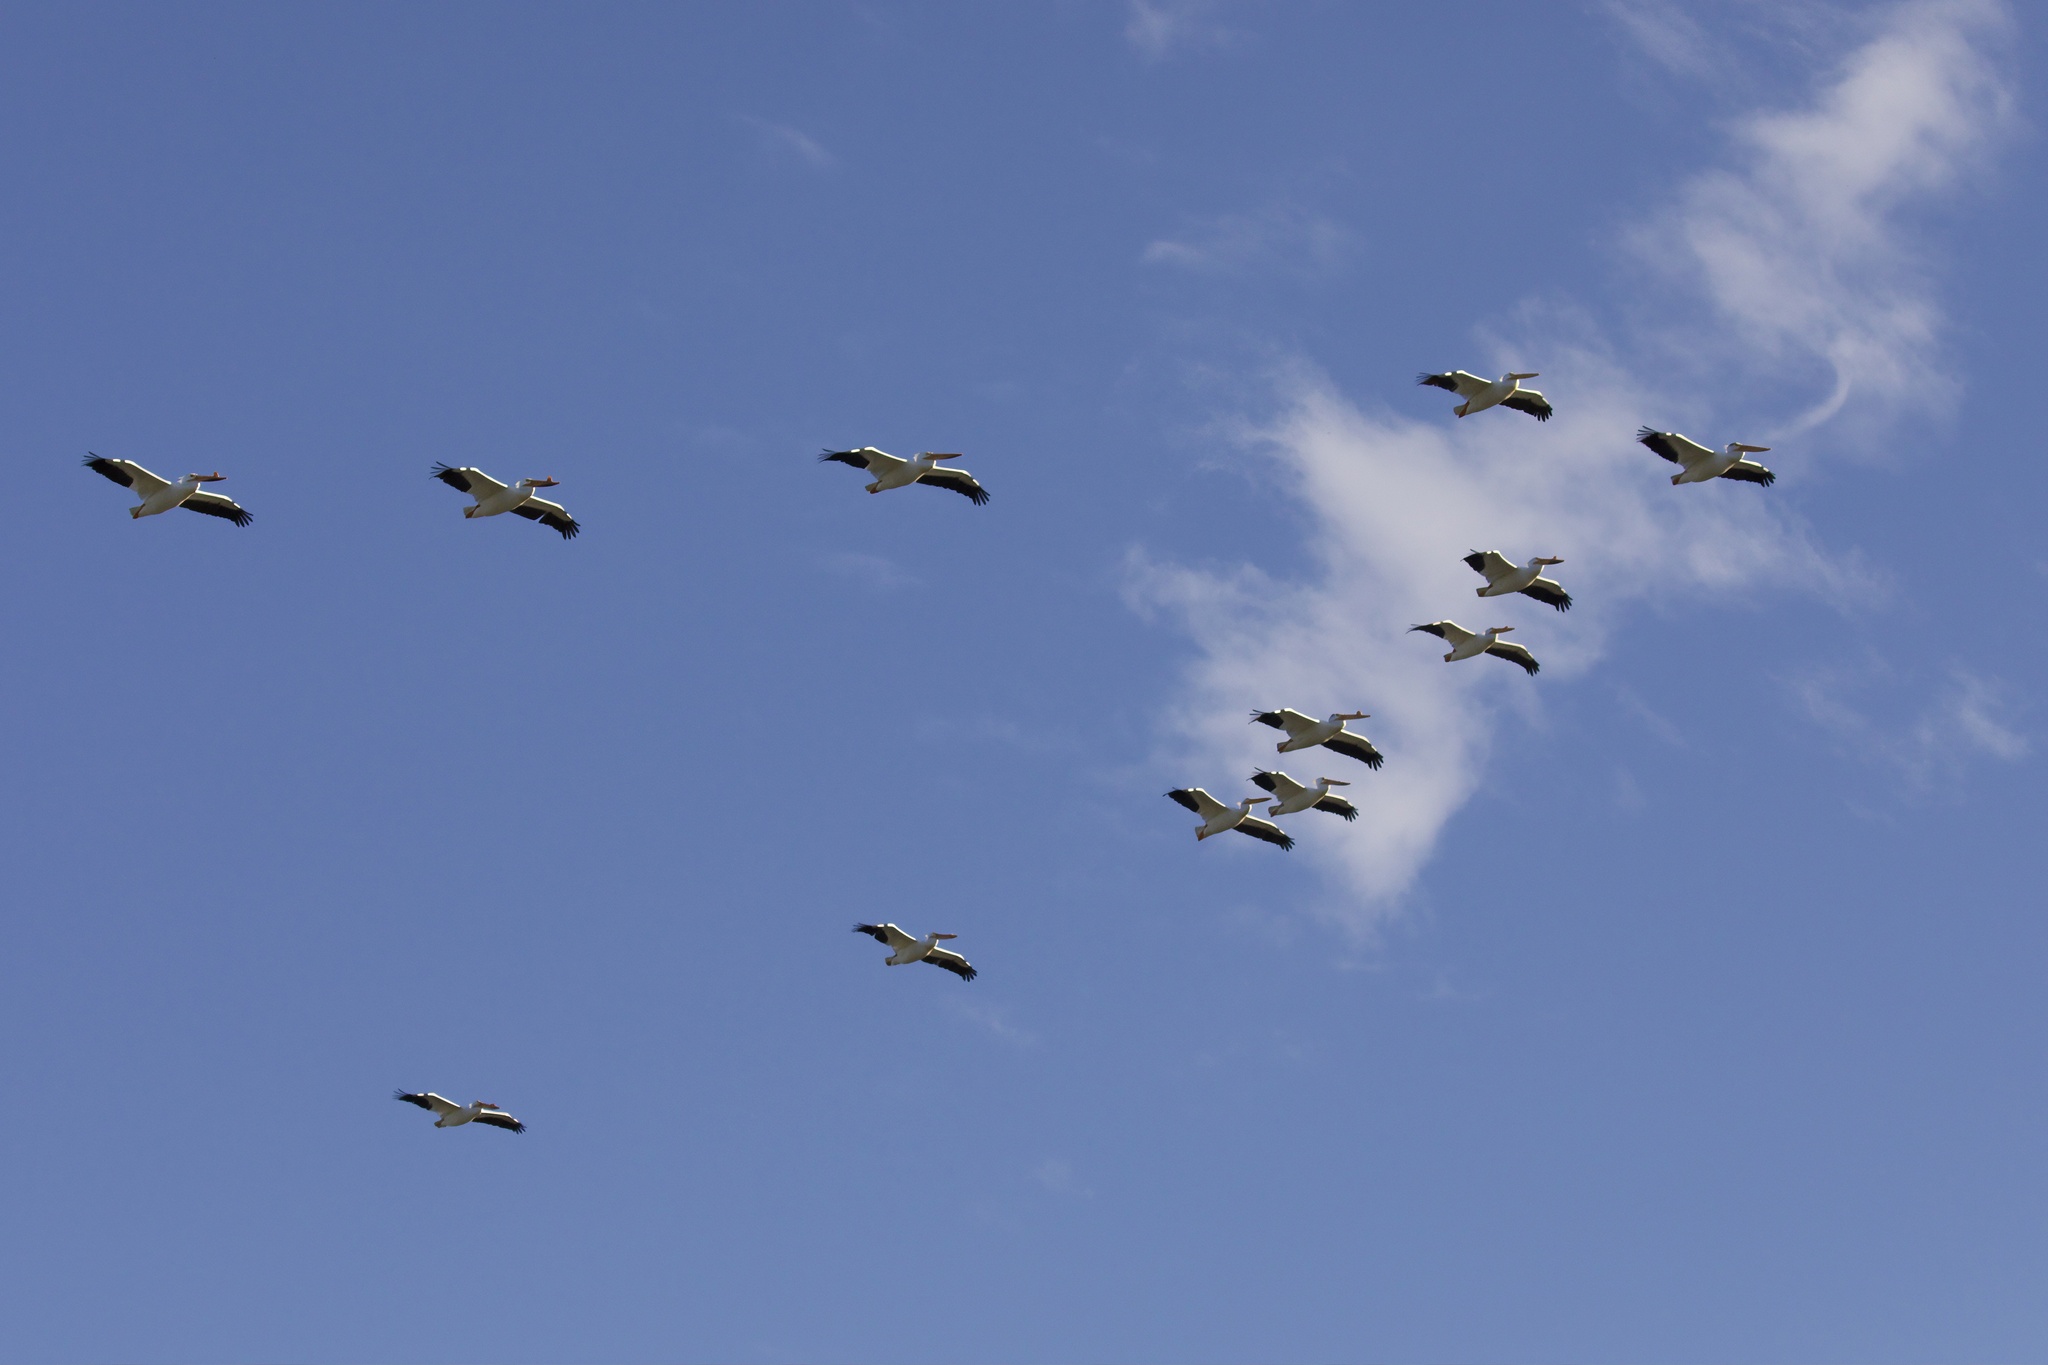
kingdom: Animalia
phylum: Chordata
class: Aves
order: Pelecaniformes
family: Pelecanidae
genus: Pelecanus
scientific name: Pelecanus erythrorhynchos
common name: American white pelican
